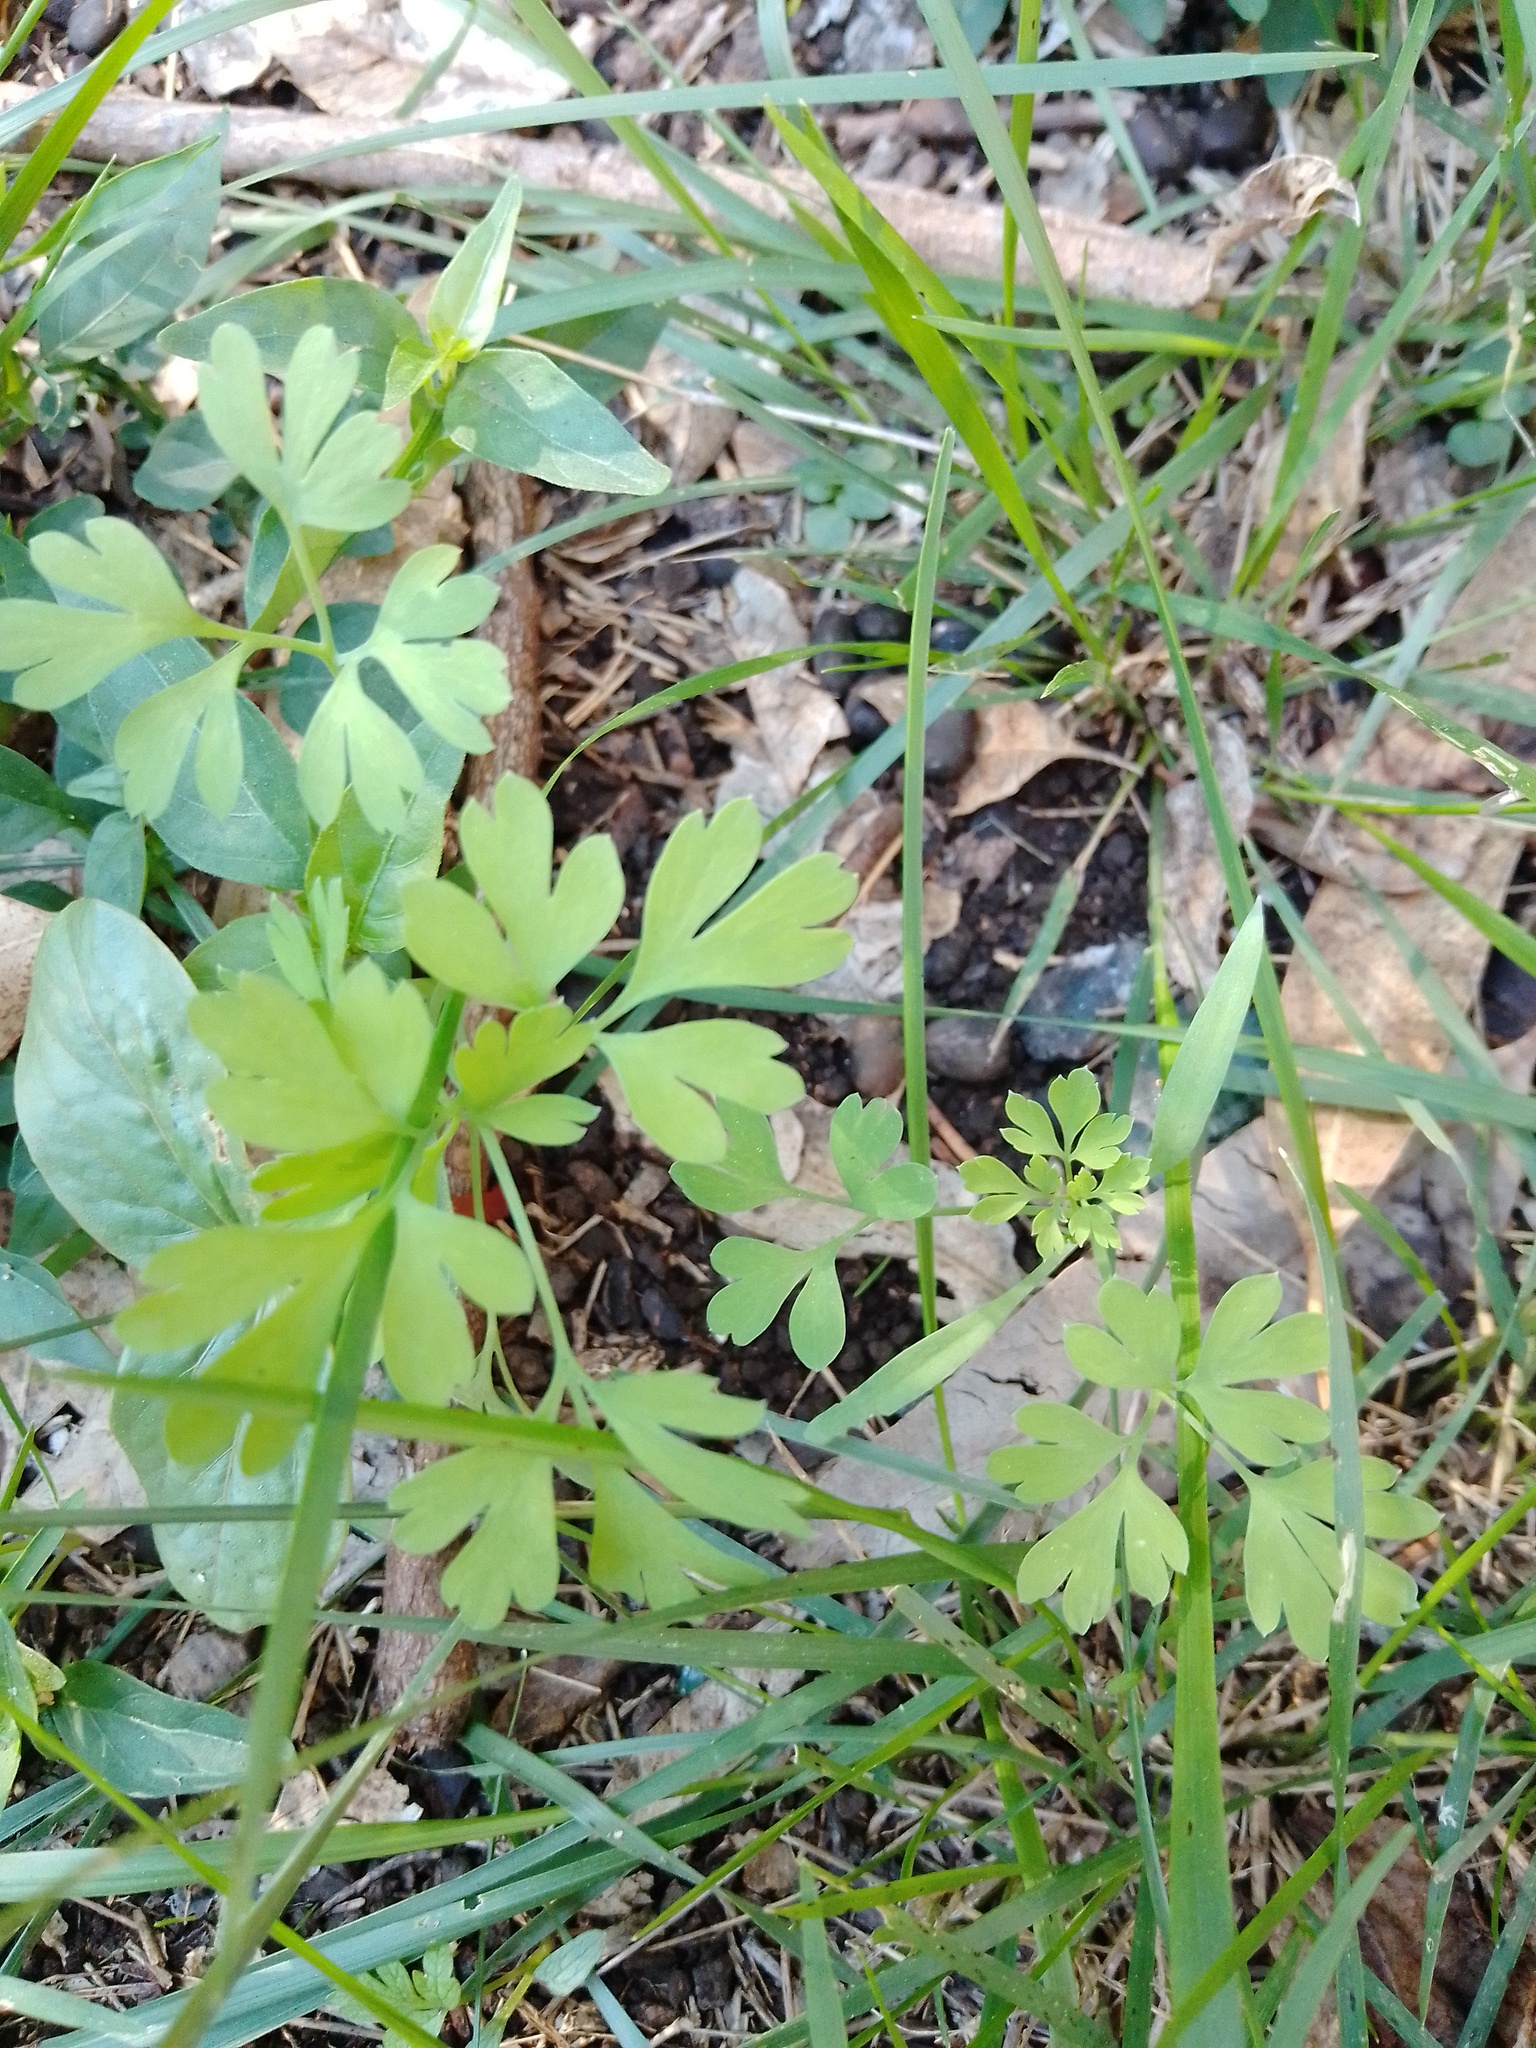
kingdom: Plantae
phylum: Tracheophyta
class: Magnoliopsida
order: Ranunculales
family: Papaveraceae
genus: Fumaria
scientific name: Fumaria capreolata
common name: White ramping-fumitory
